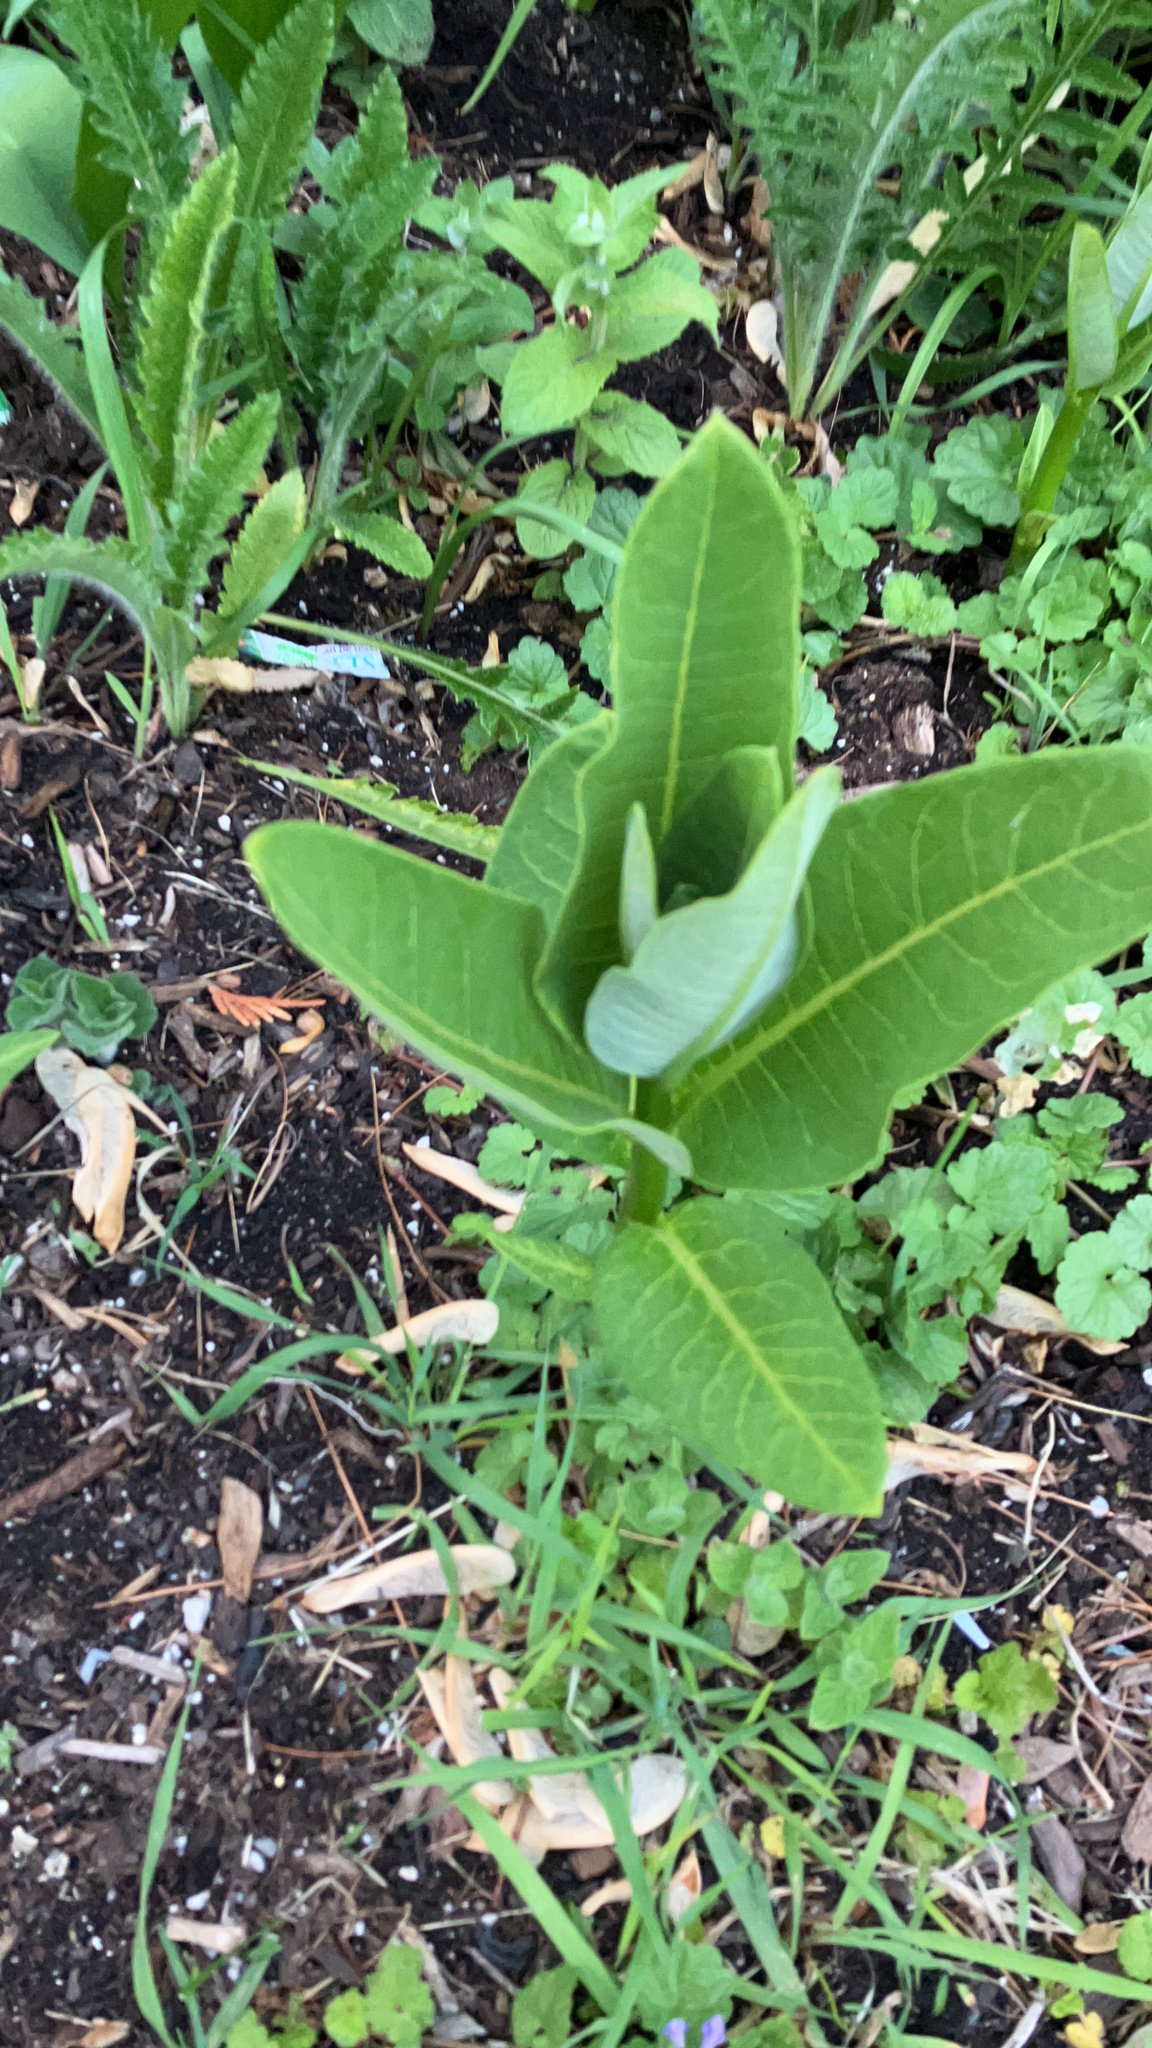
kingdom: Plantae
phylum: Tracheophyta
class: Magnoliopsida
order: Gentianales
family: Apocynaceae
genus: Asclepias
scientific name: Asclepias syriaca
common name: Common milkweed
